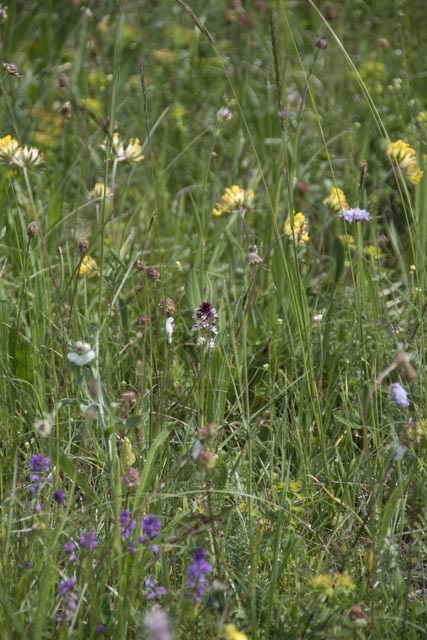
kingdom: Plantae
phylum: Tracheophyta
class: Liliopsida
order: Asparagales
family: Orchidaceae
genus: Neotinea
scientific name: Neotinea ustulata
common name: Burnt orchid
